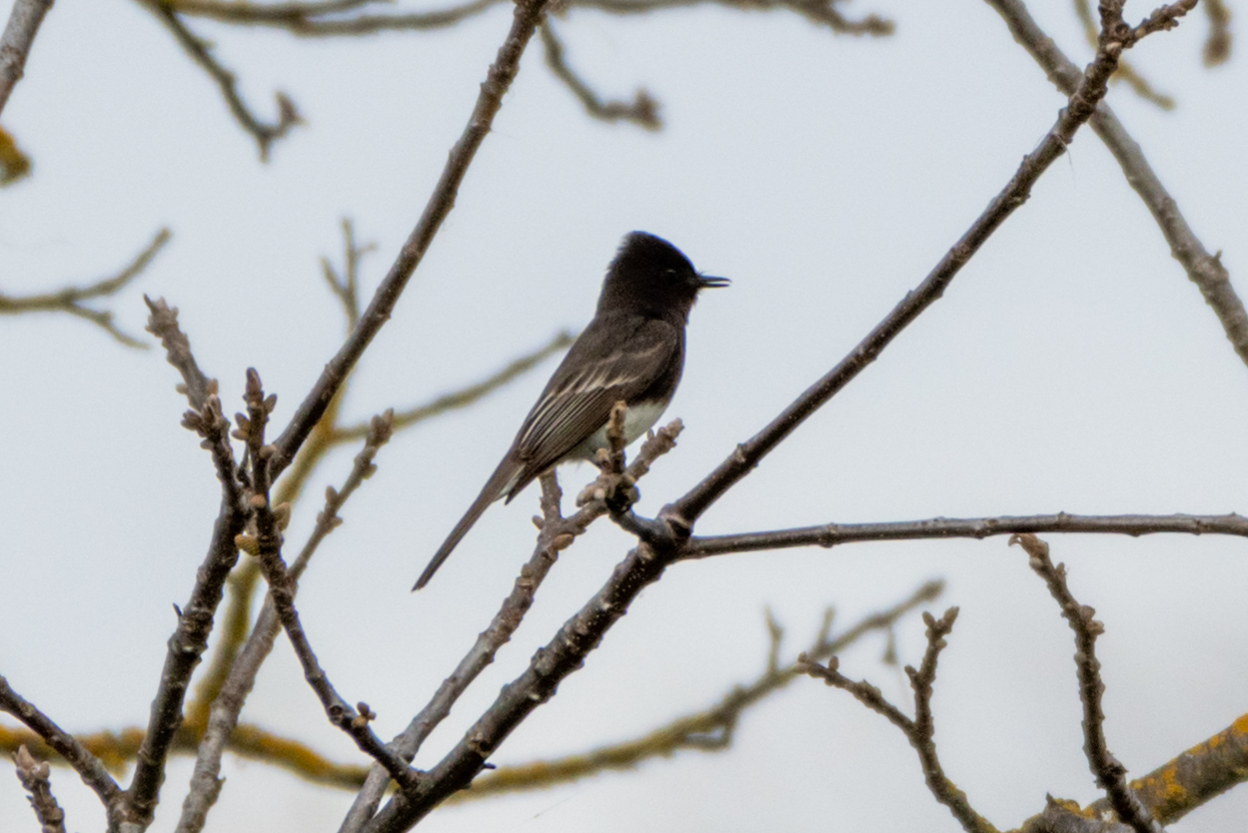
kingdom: Animalia
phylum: Chordata
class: Aves
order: Passeriformes
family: Tyrannidae
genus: Sayornis
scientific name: Sayornis nigricans
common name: Black phoebe
